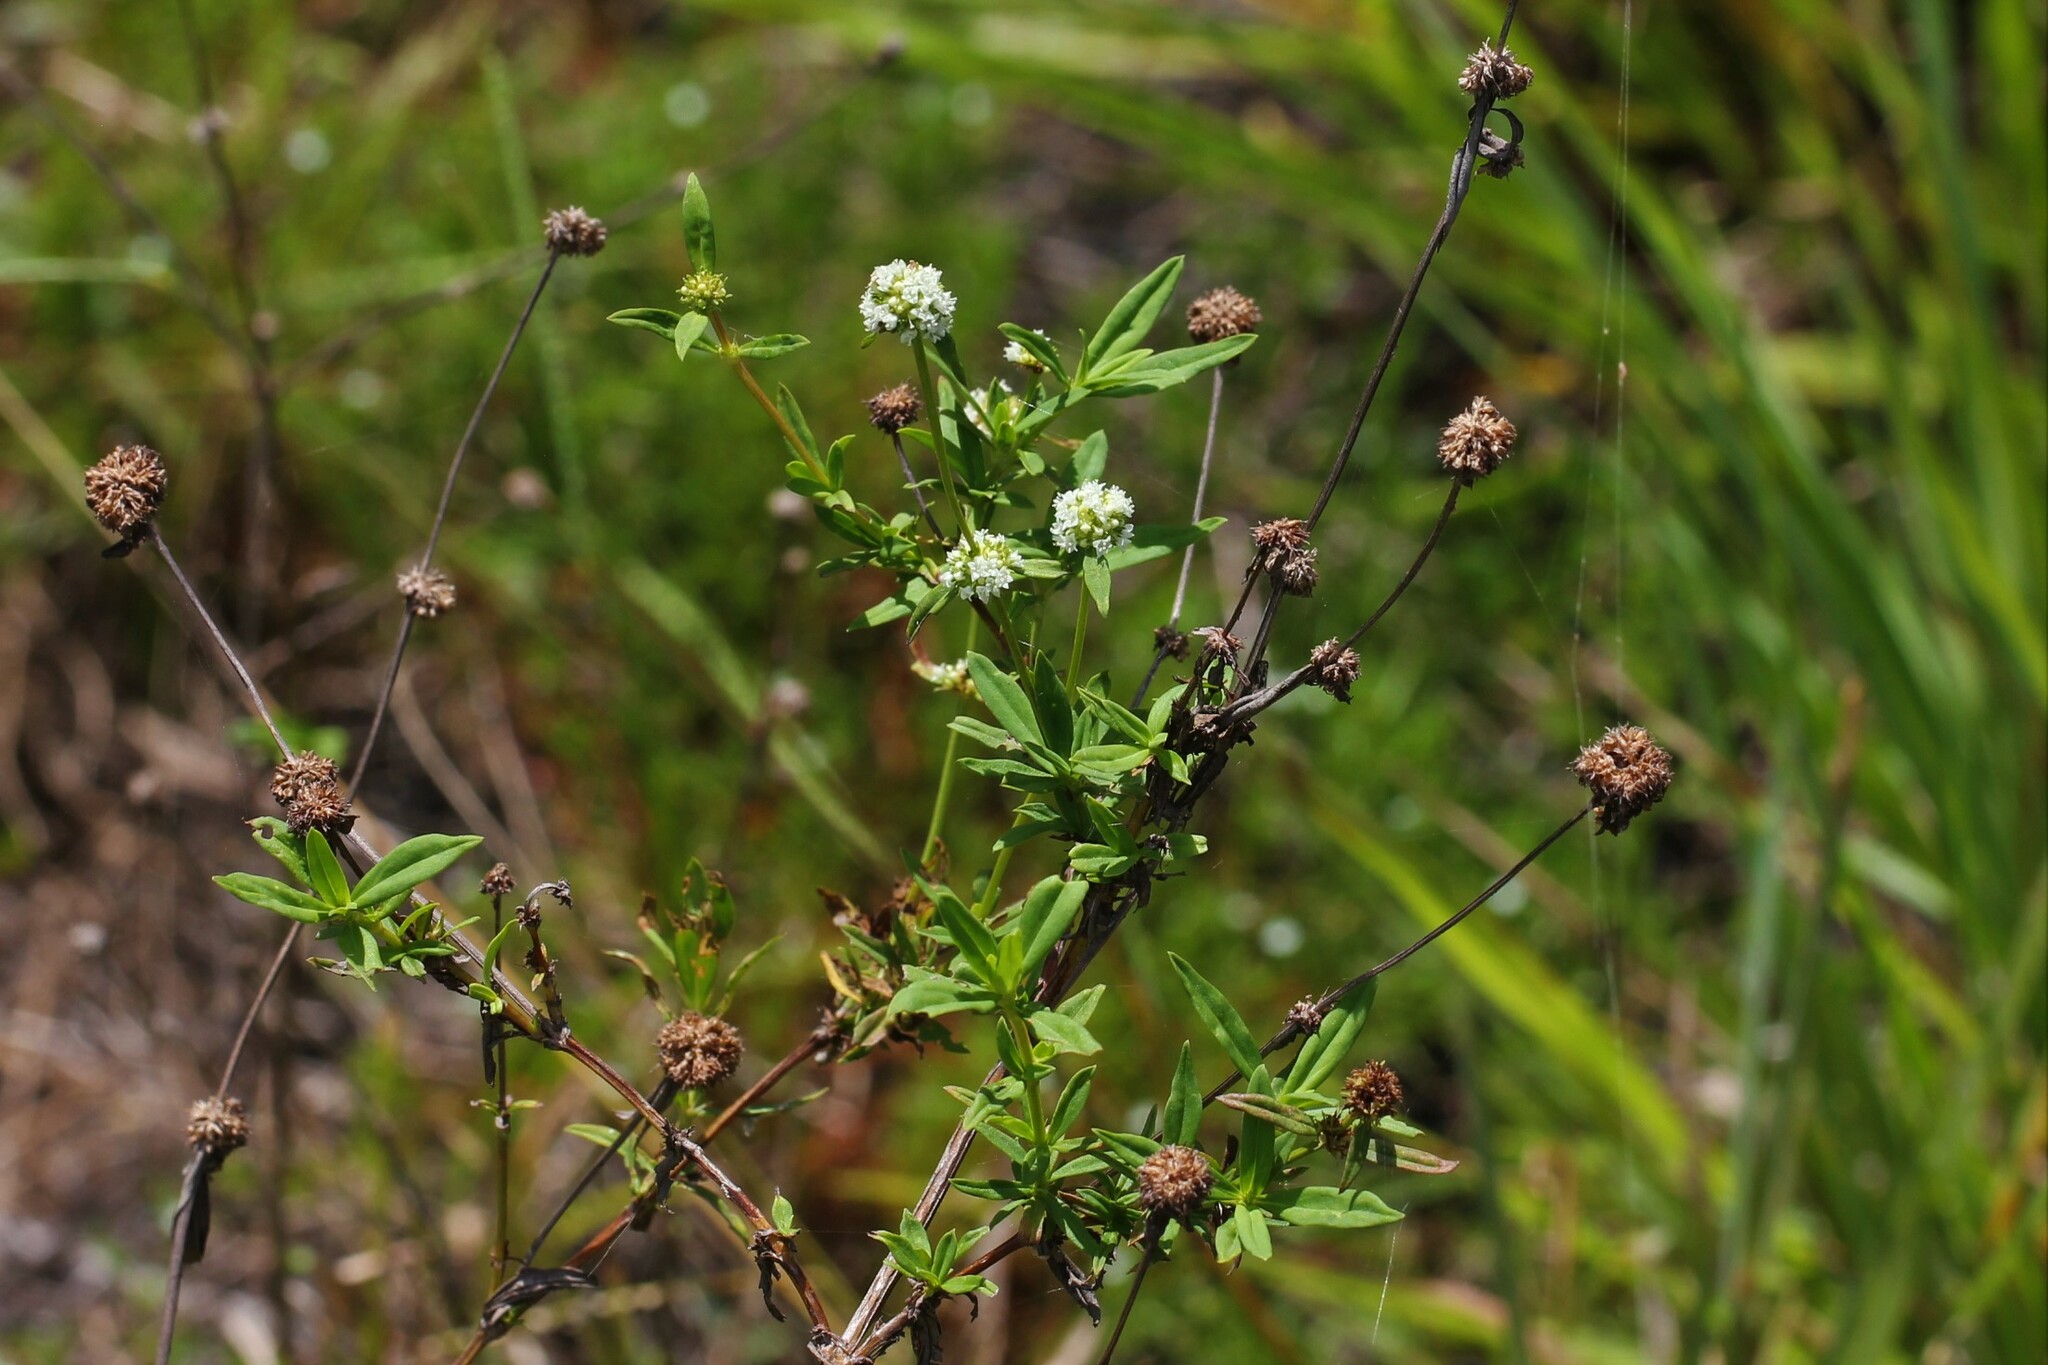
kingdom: Plantae
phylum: Tracheophyta
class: Magnoliopsida
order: Gentianales
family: Rubiaceae
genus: Spermacoce
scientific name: Spermacoce verticillata
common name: Shrubby false buttonweed
